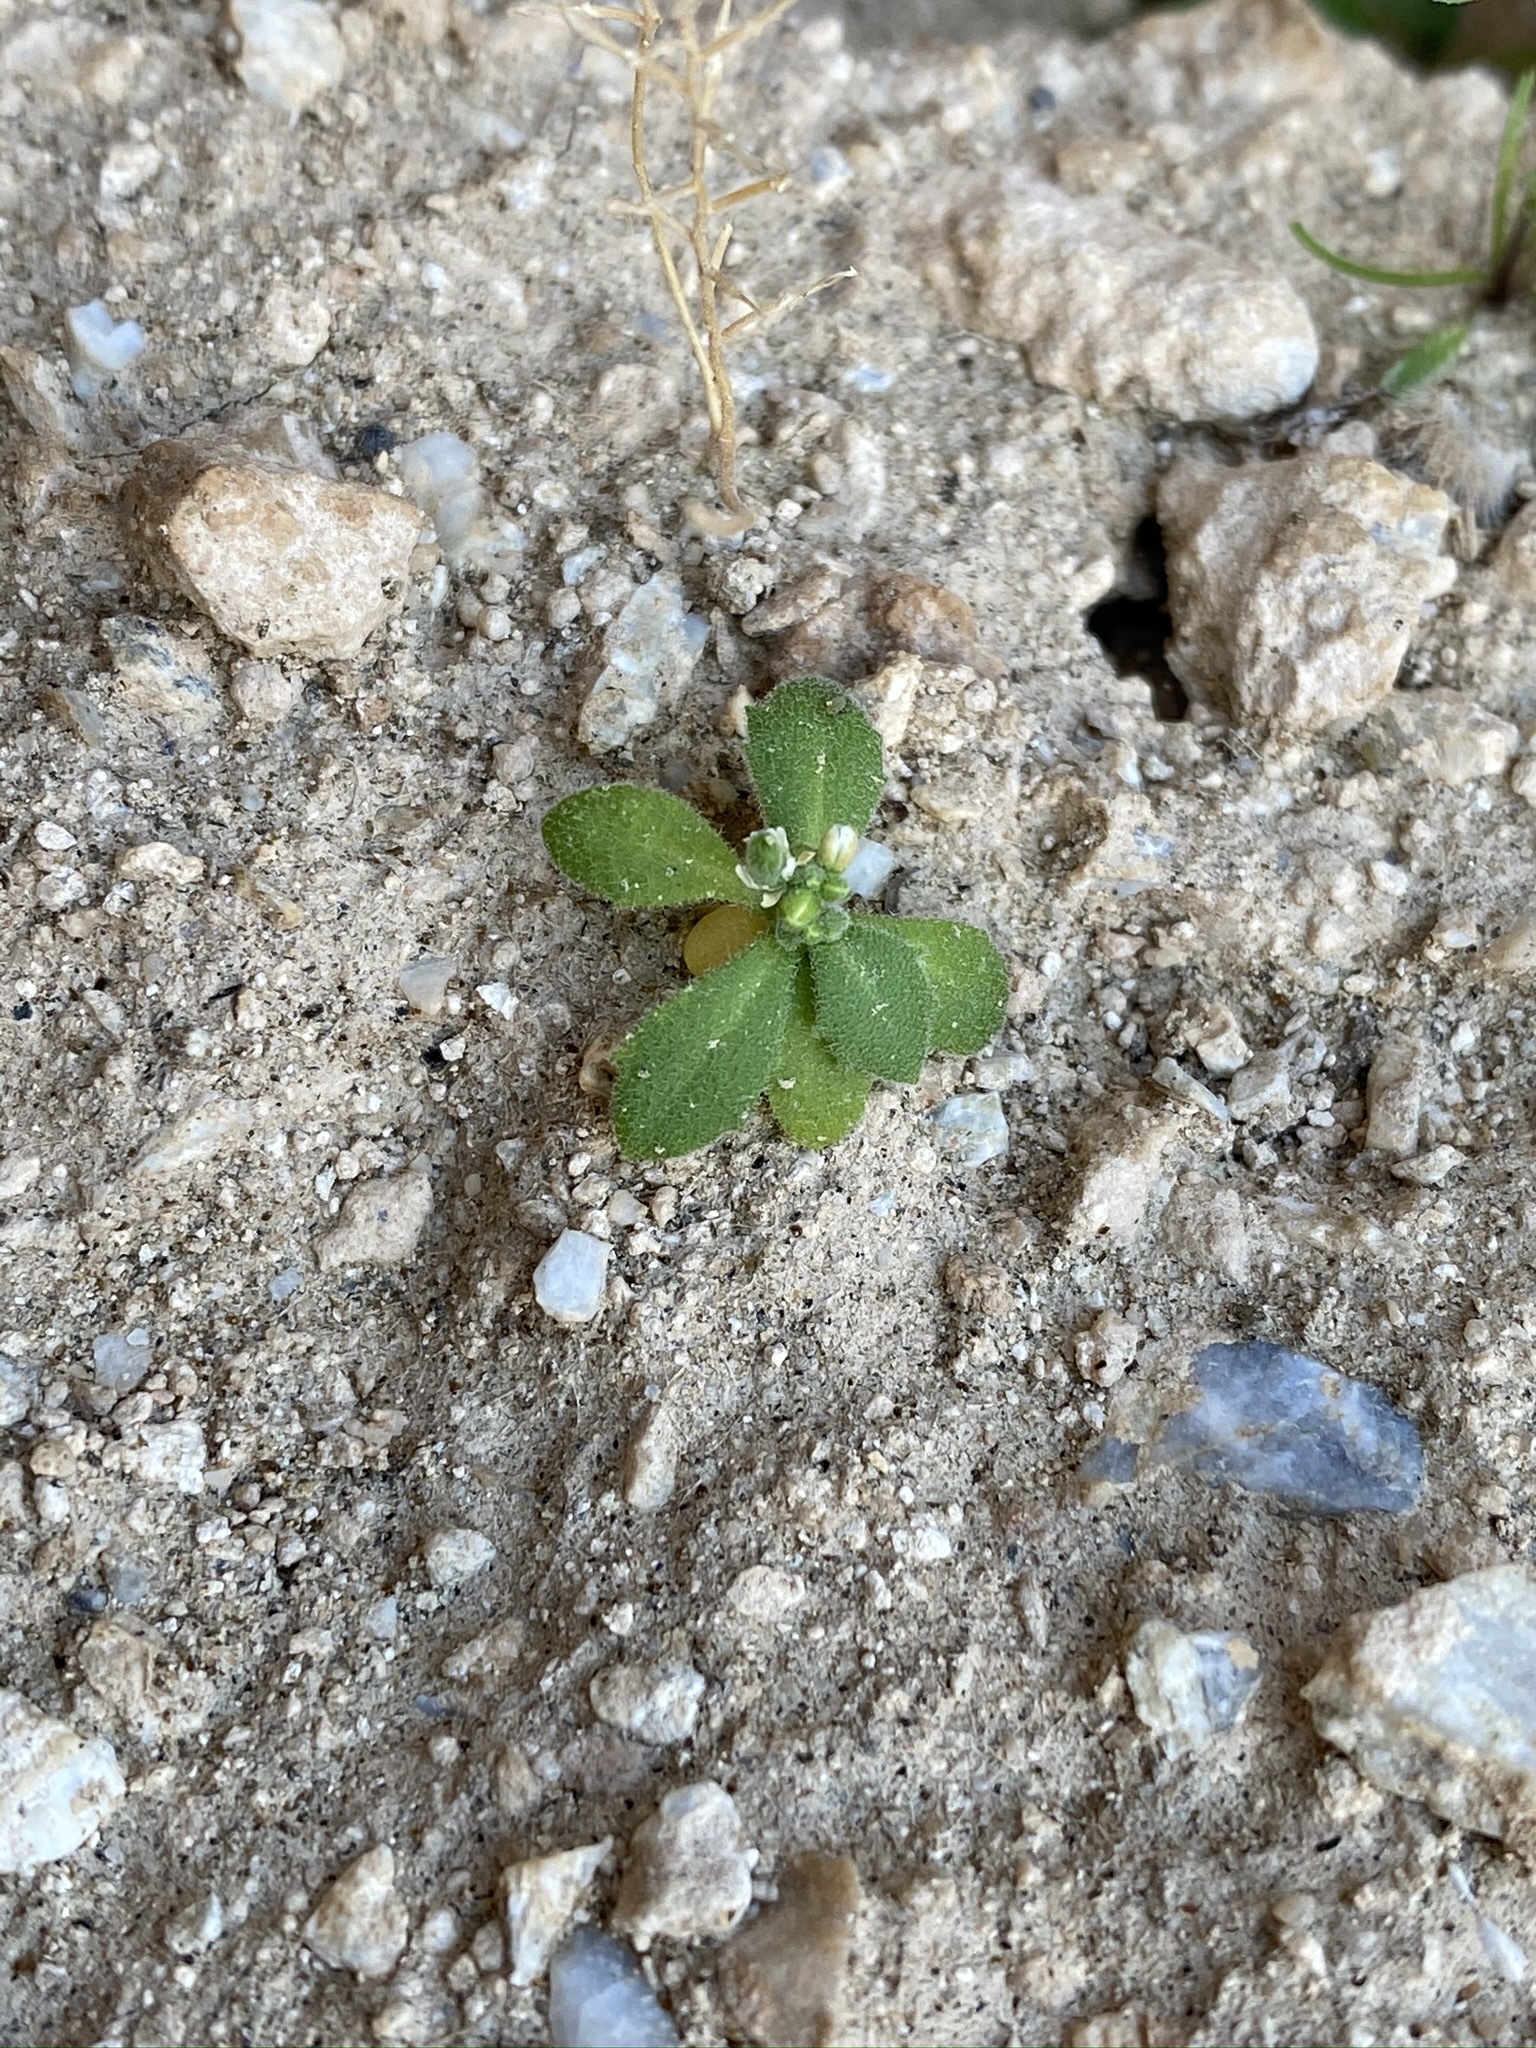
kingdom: Plantae
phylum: Tracheophyta
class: Magnoliopsida
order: Brassicales
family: Brassicaceae
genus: Tomostima
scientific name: Tomostima cuneifolia
